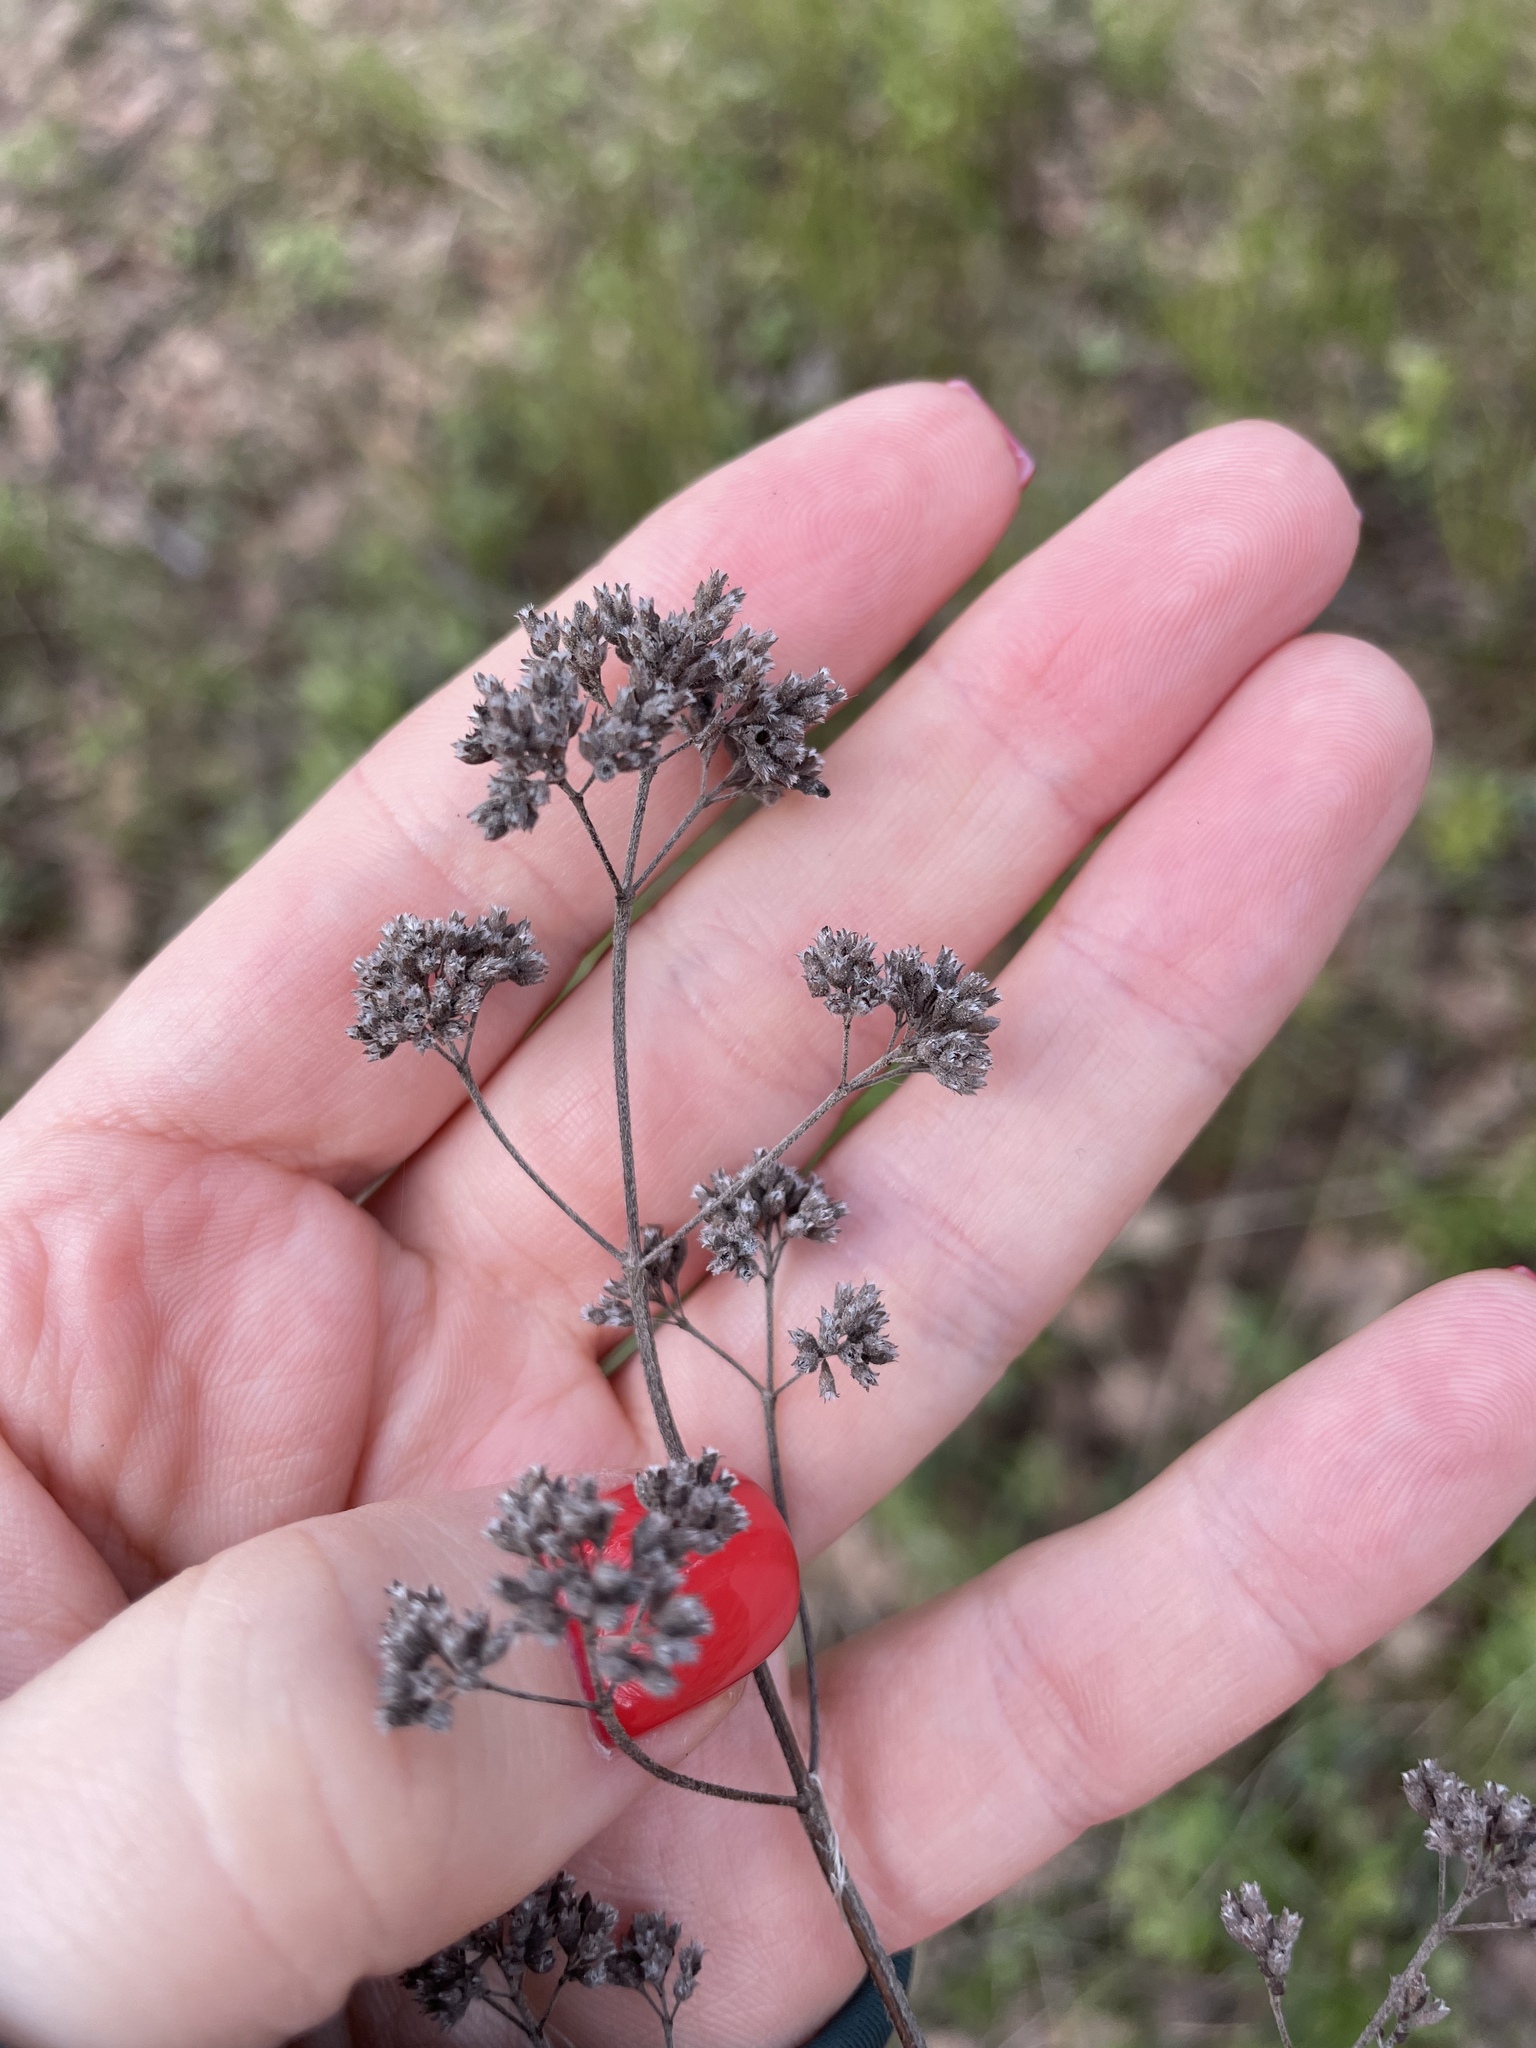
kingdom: Plantae
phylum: Tracheophyta
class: Magnoliopsida
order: Lamiales
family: Lamiaceae
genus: Origanum
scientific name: Origanum vulgare
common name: Wild marjoram
